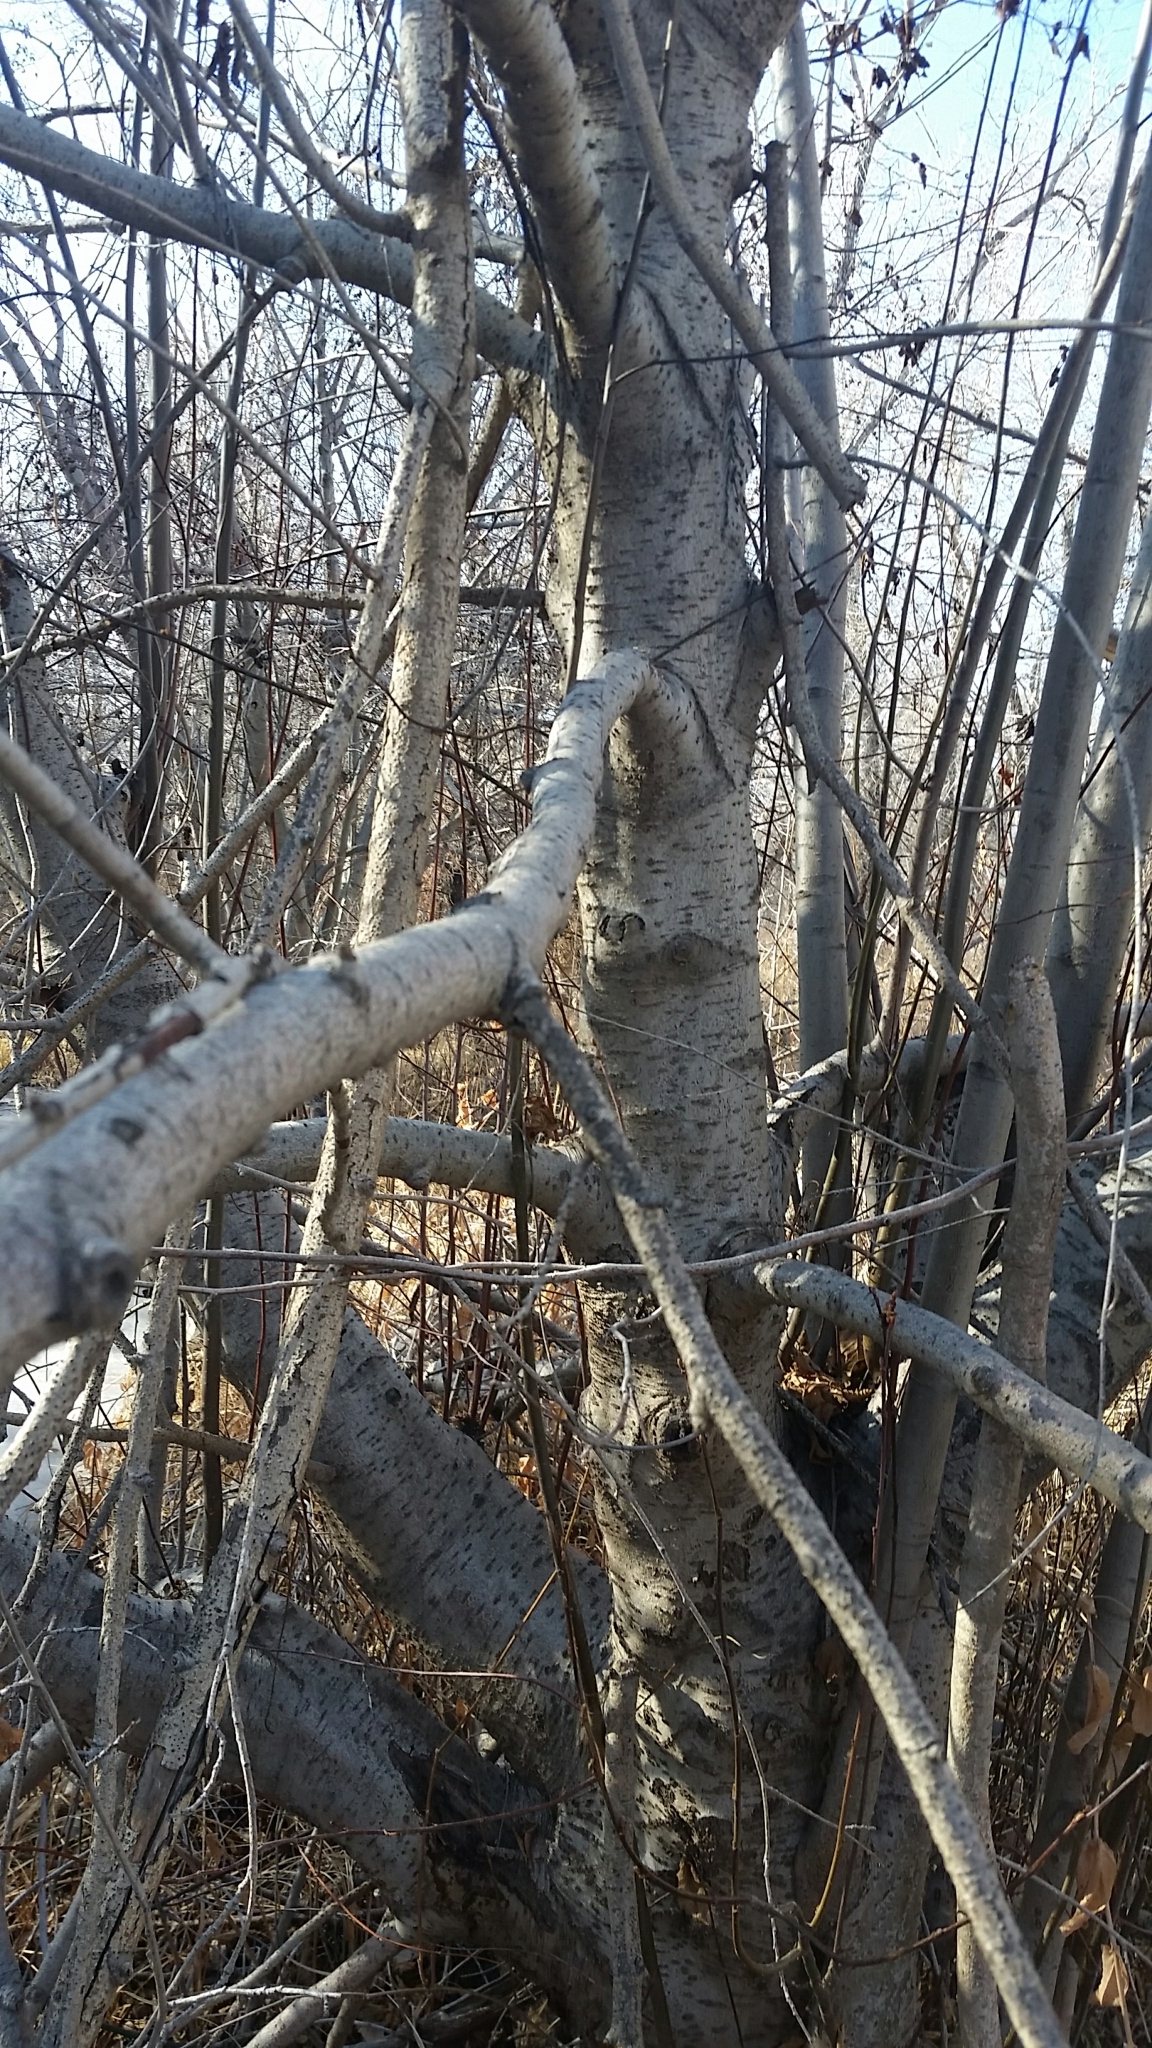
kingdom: Plantae
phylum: Tracheophyta
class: Magnoliopsida
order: Fagales
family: Betulaceae
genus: Alnus
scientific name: Alnus incana
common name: Grey alder
